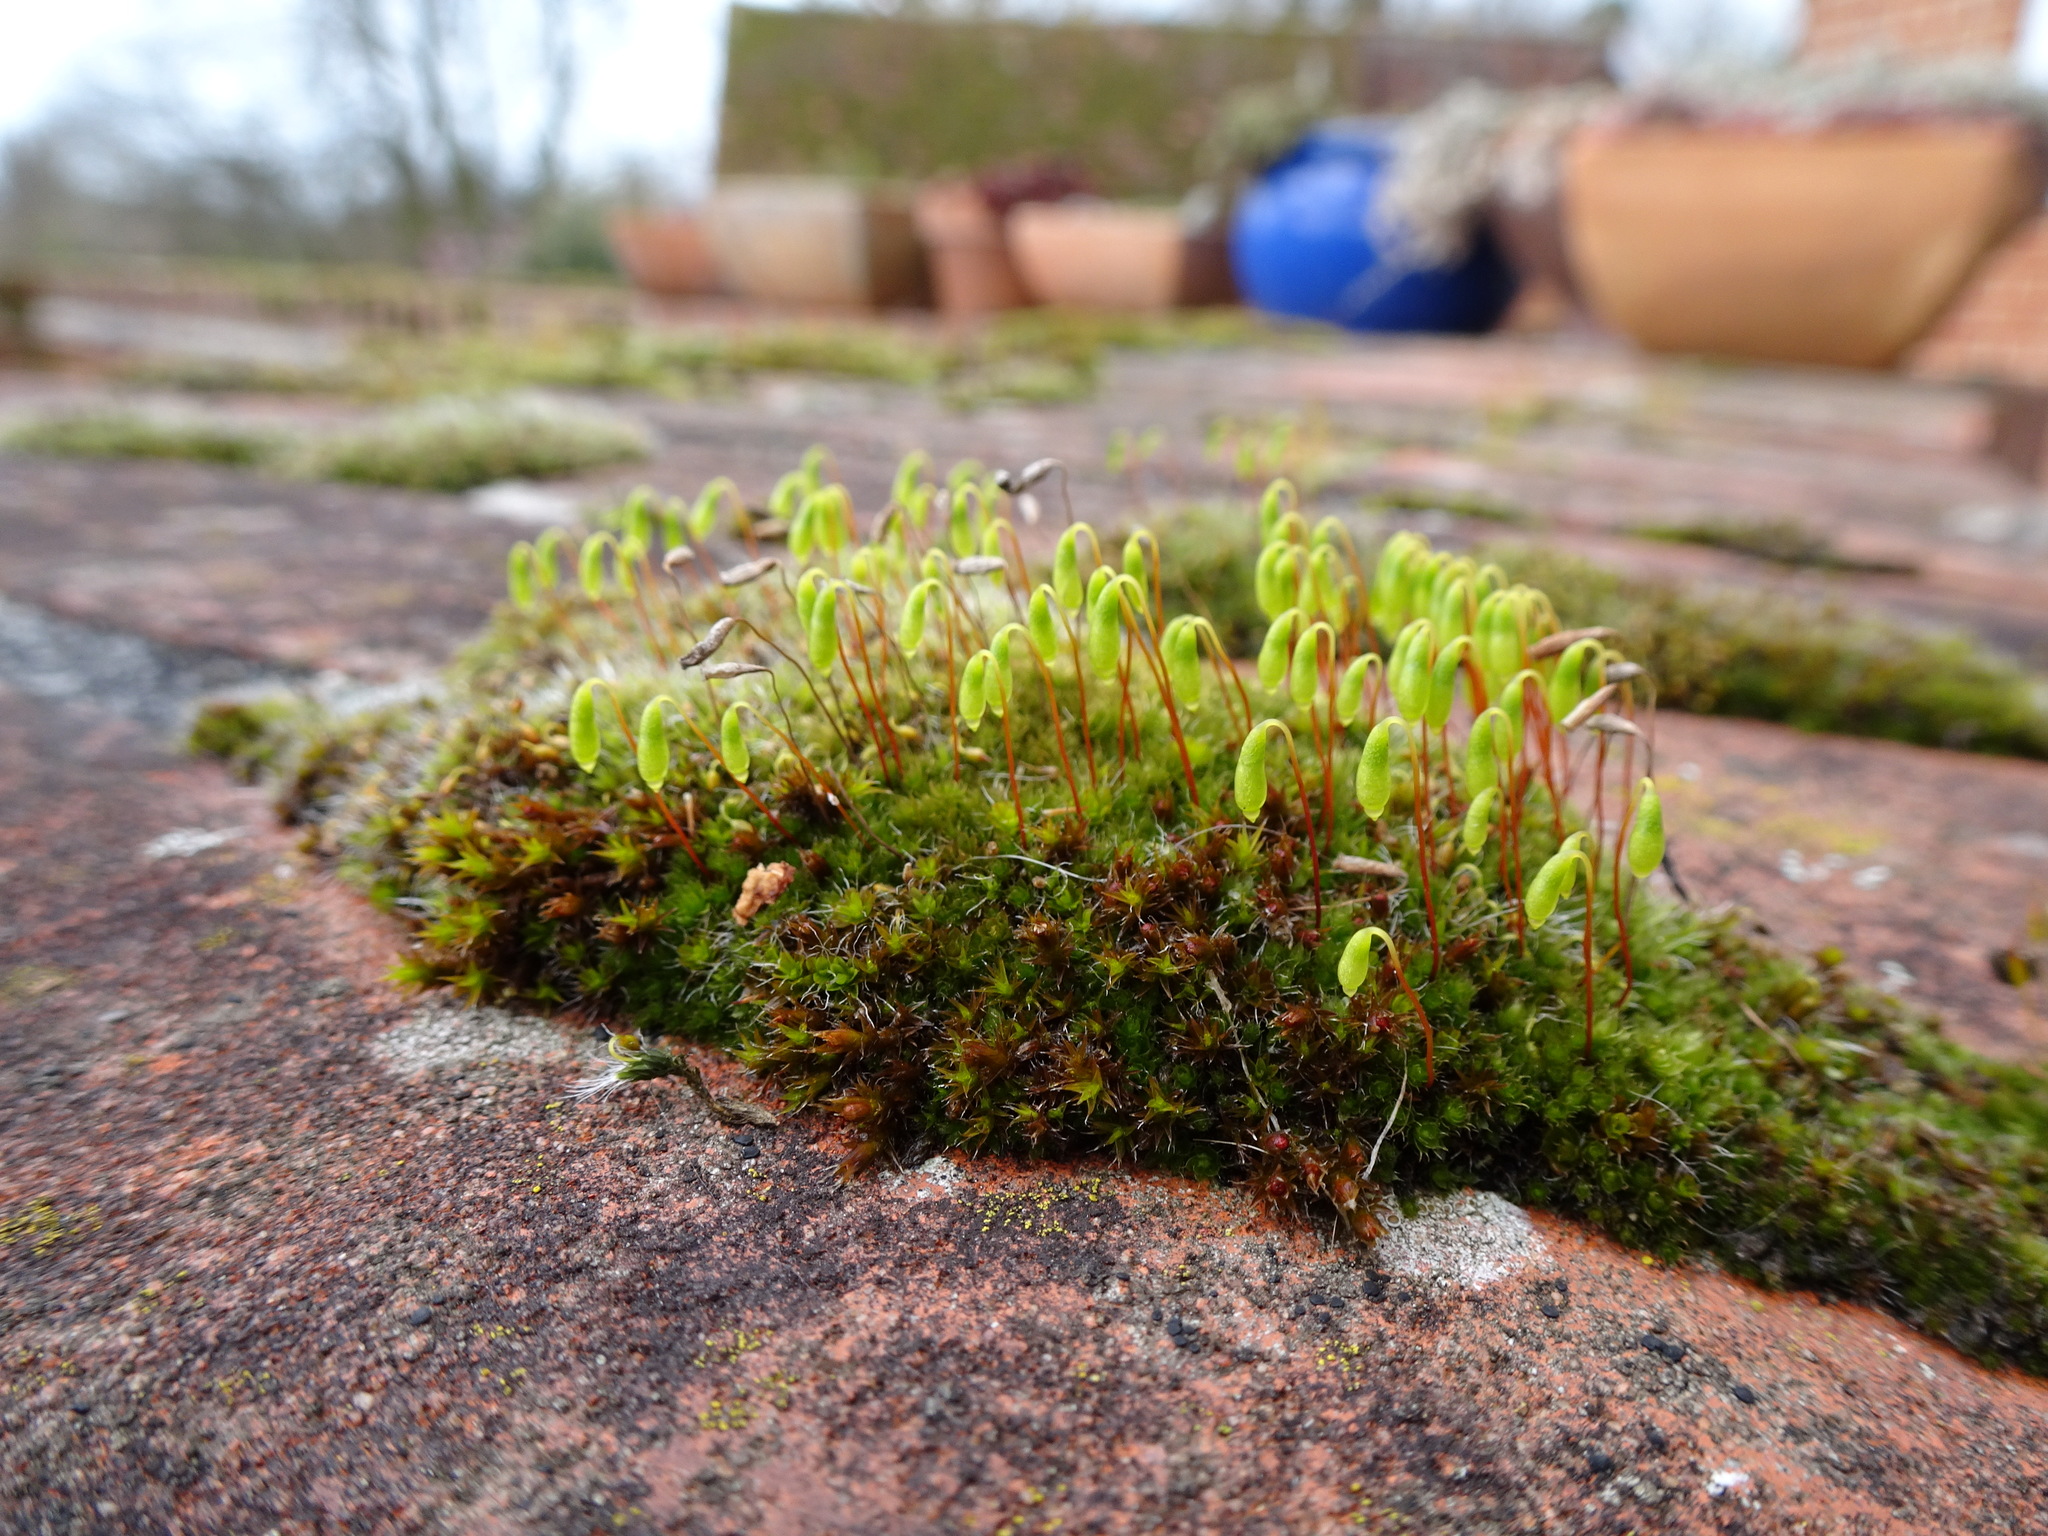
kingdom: Plantae
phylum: Bryophyta
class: Bryopsida
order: Bryales
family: Bryaceae
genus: Rosulabryum
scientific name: Rosulabryum capillare
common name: Capillary thread-moss
